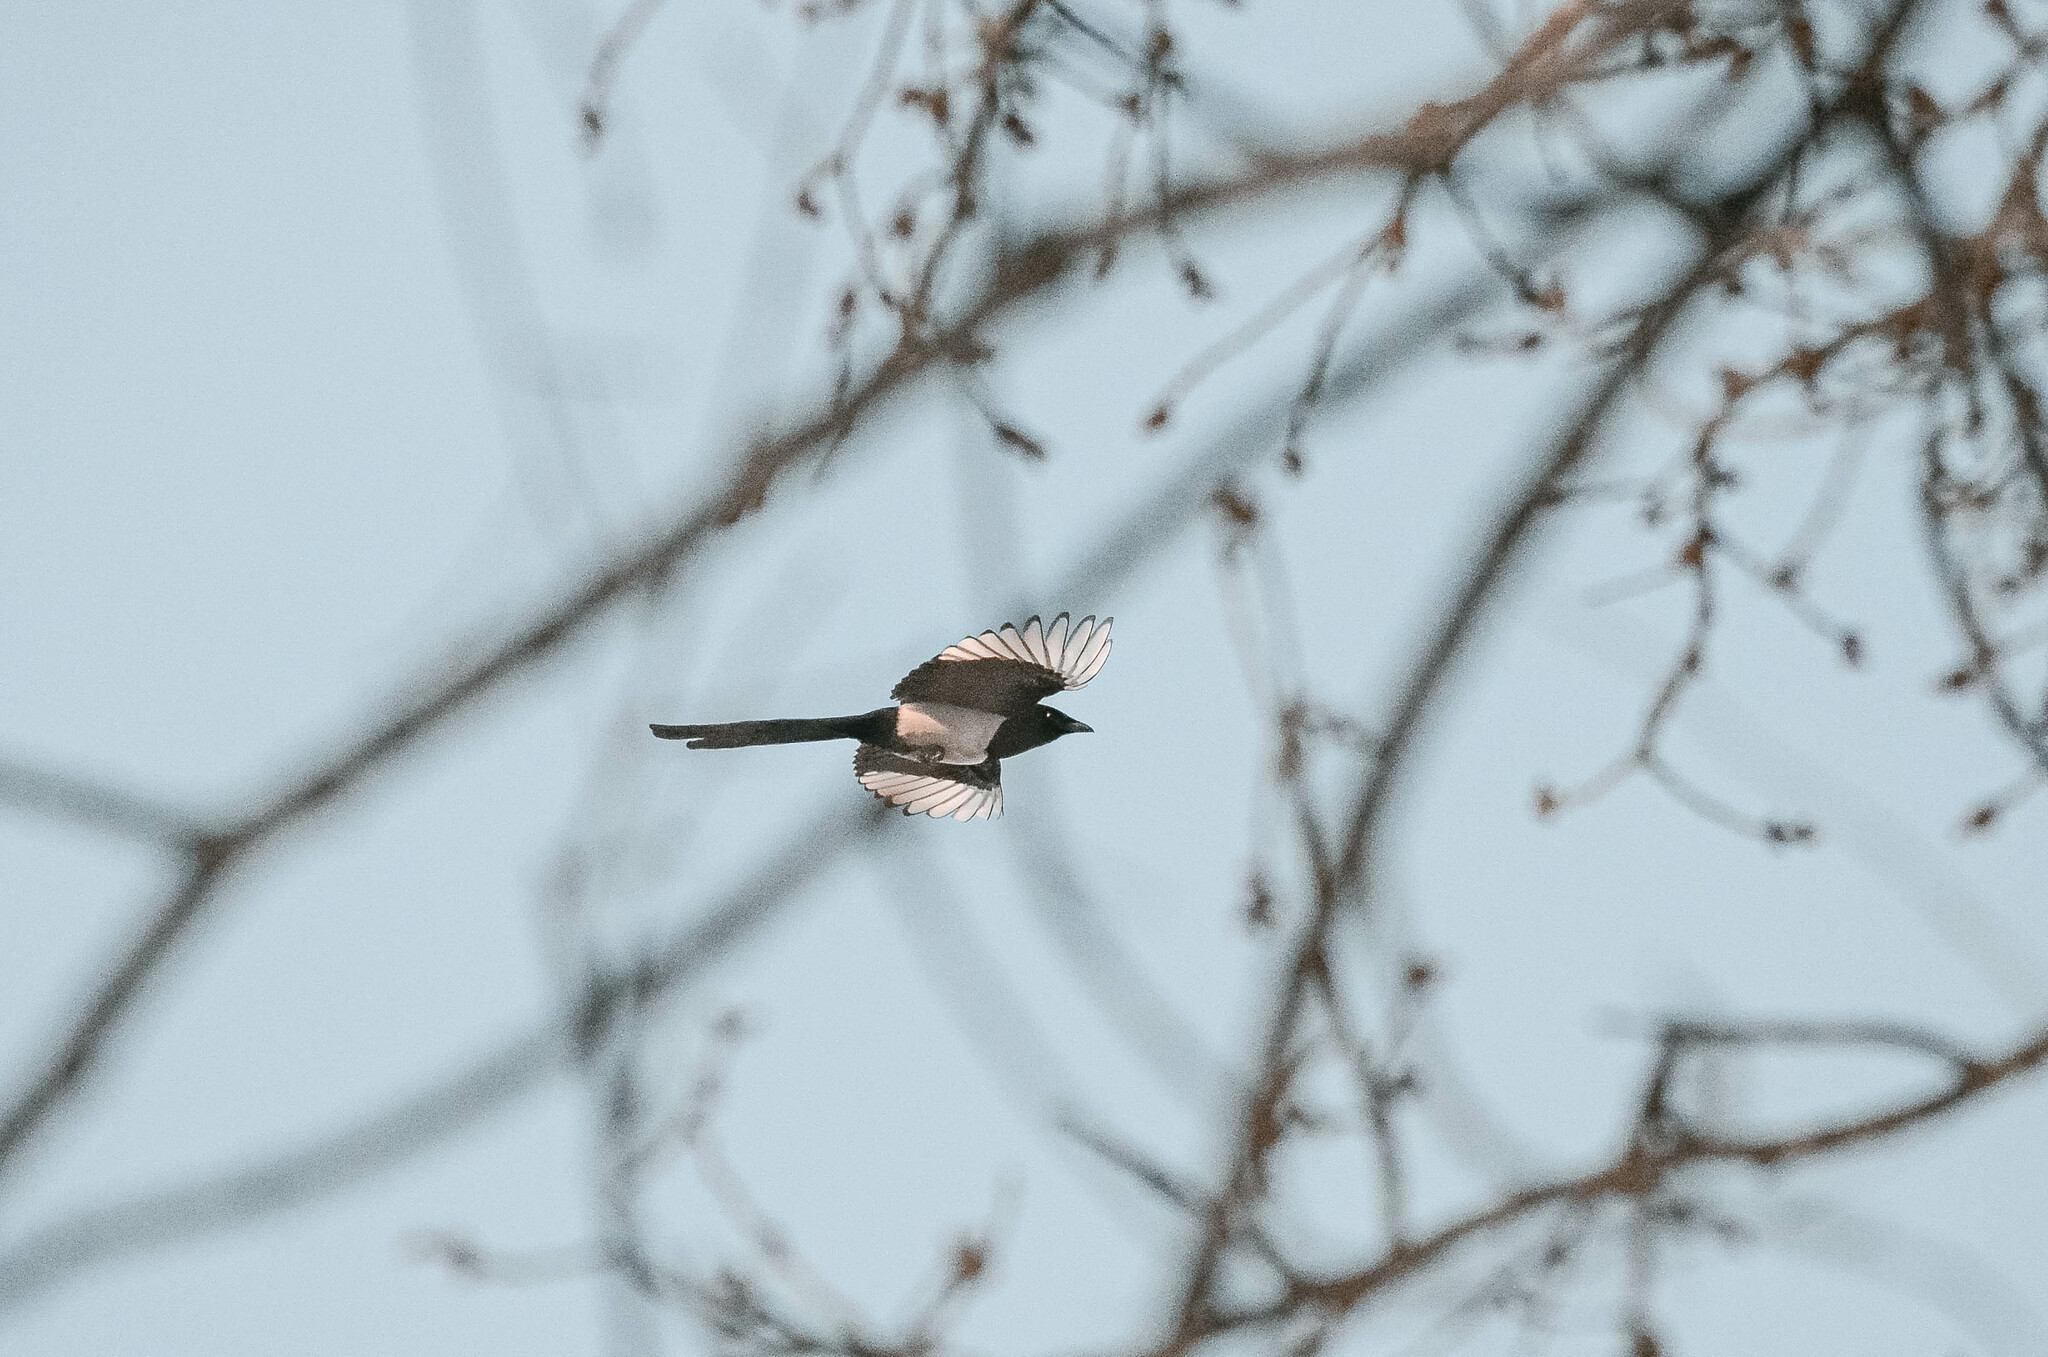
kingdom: Animalia
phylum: Chordata
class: Aves
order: Passeriformes
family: Corvidae
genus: Pica
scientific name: Pica pica
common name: Eurasian magpie
